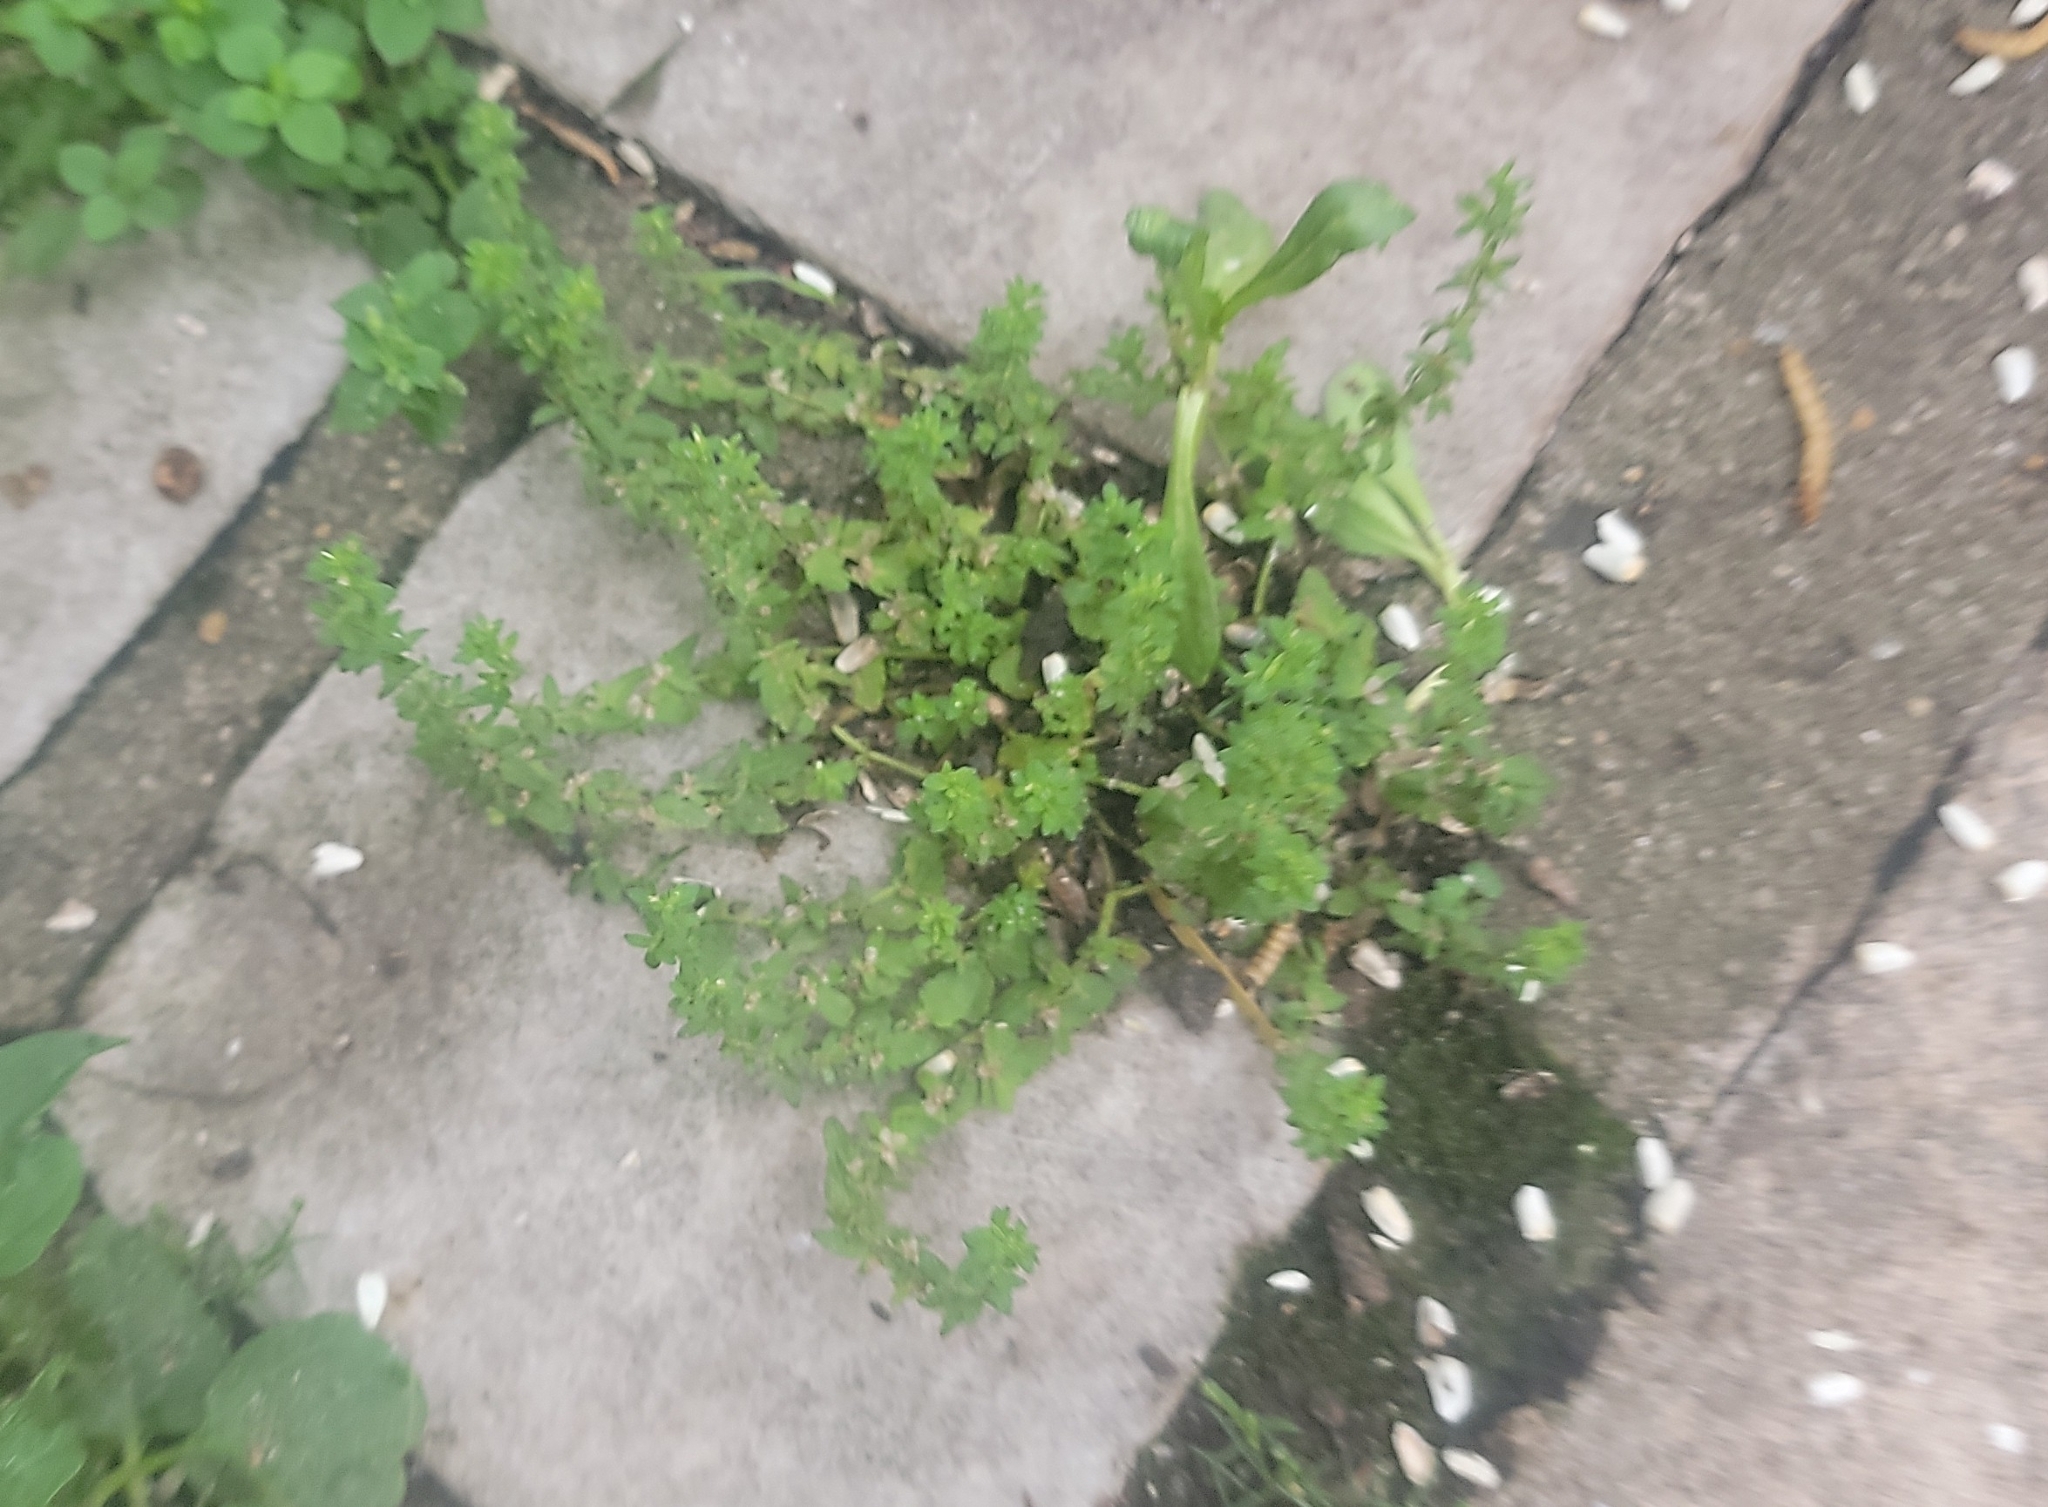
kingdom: Plantae
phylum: Tracheophyta
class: Magnoliopsida
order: Lamiales
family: Plantaginaceae
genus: Veronica
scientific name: Veronica arvensis
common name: Corn speedwell
